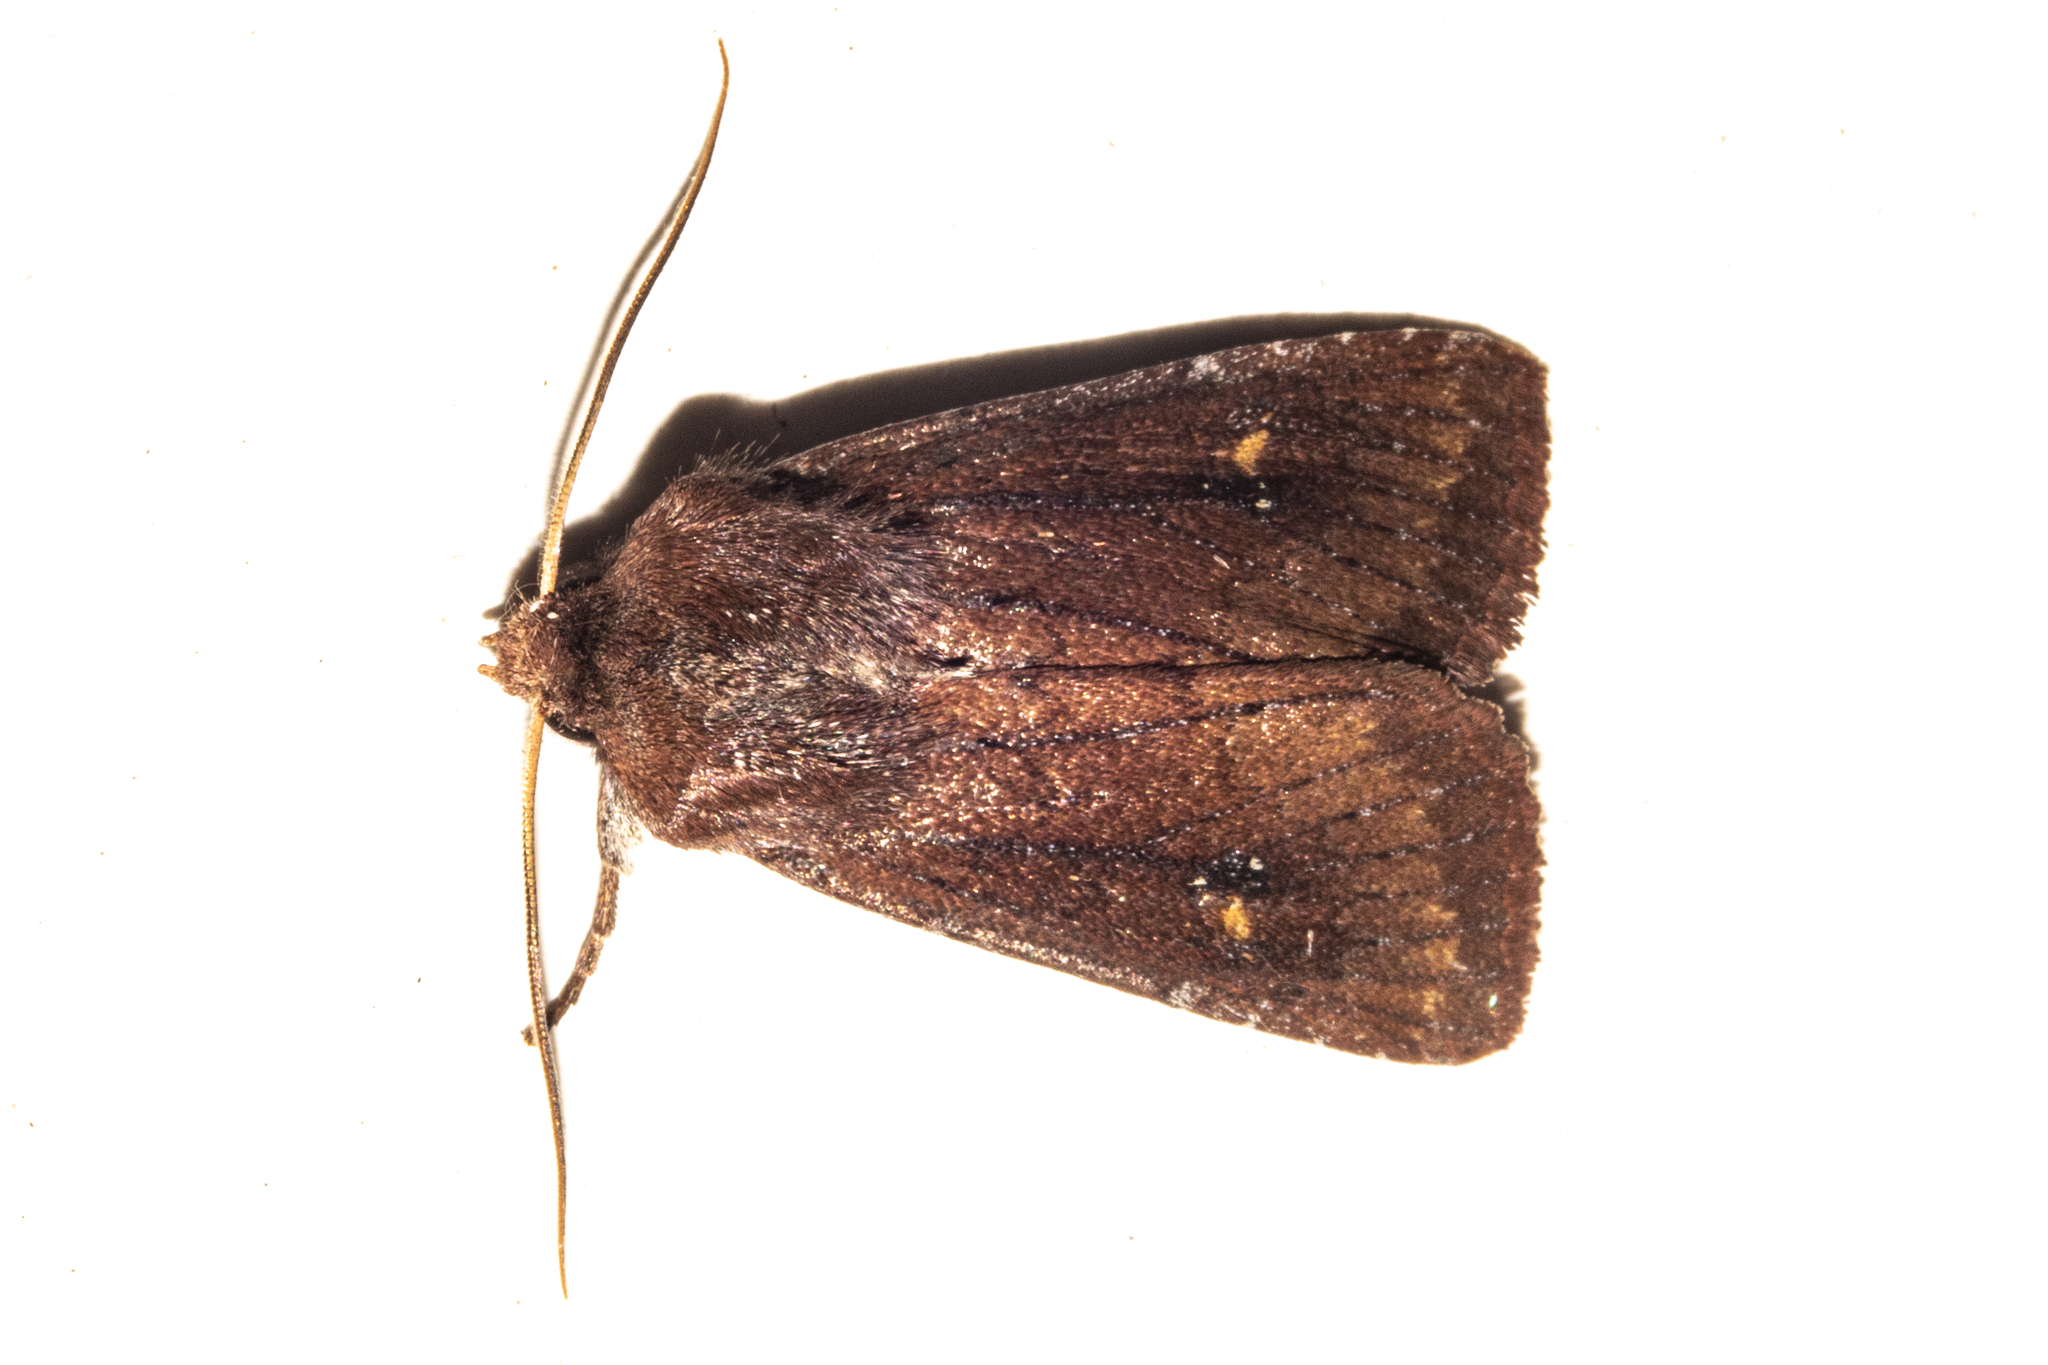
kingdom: Animalia
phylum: Arthropoda
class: Insecta
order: Lepidoptera
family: Noctuidae
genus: Ichneutica
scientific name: Ichneutica
